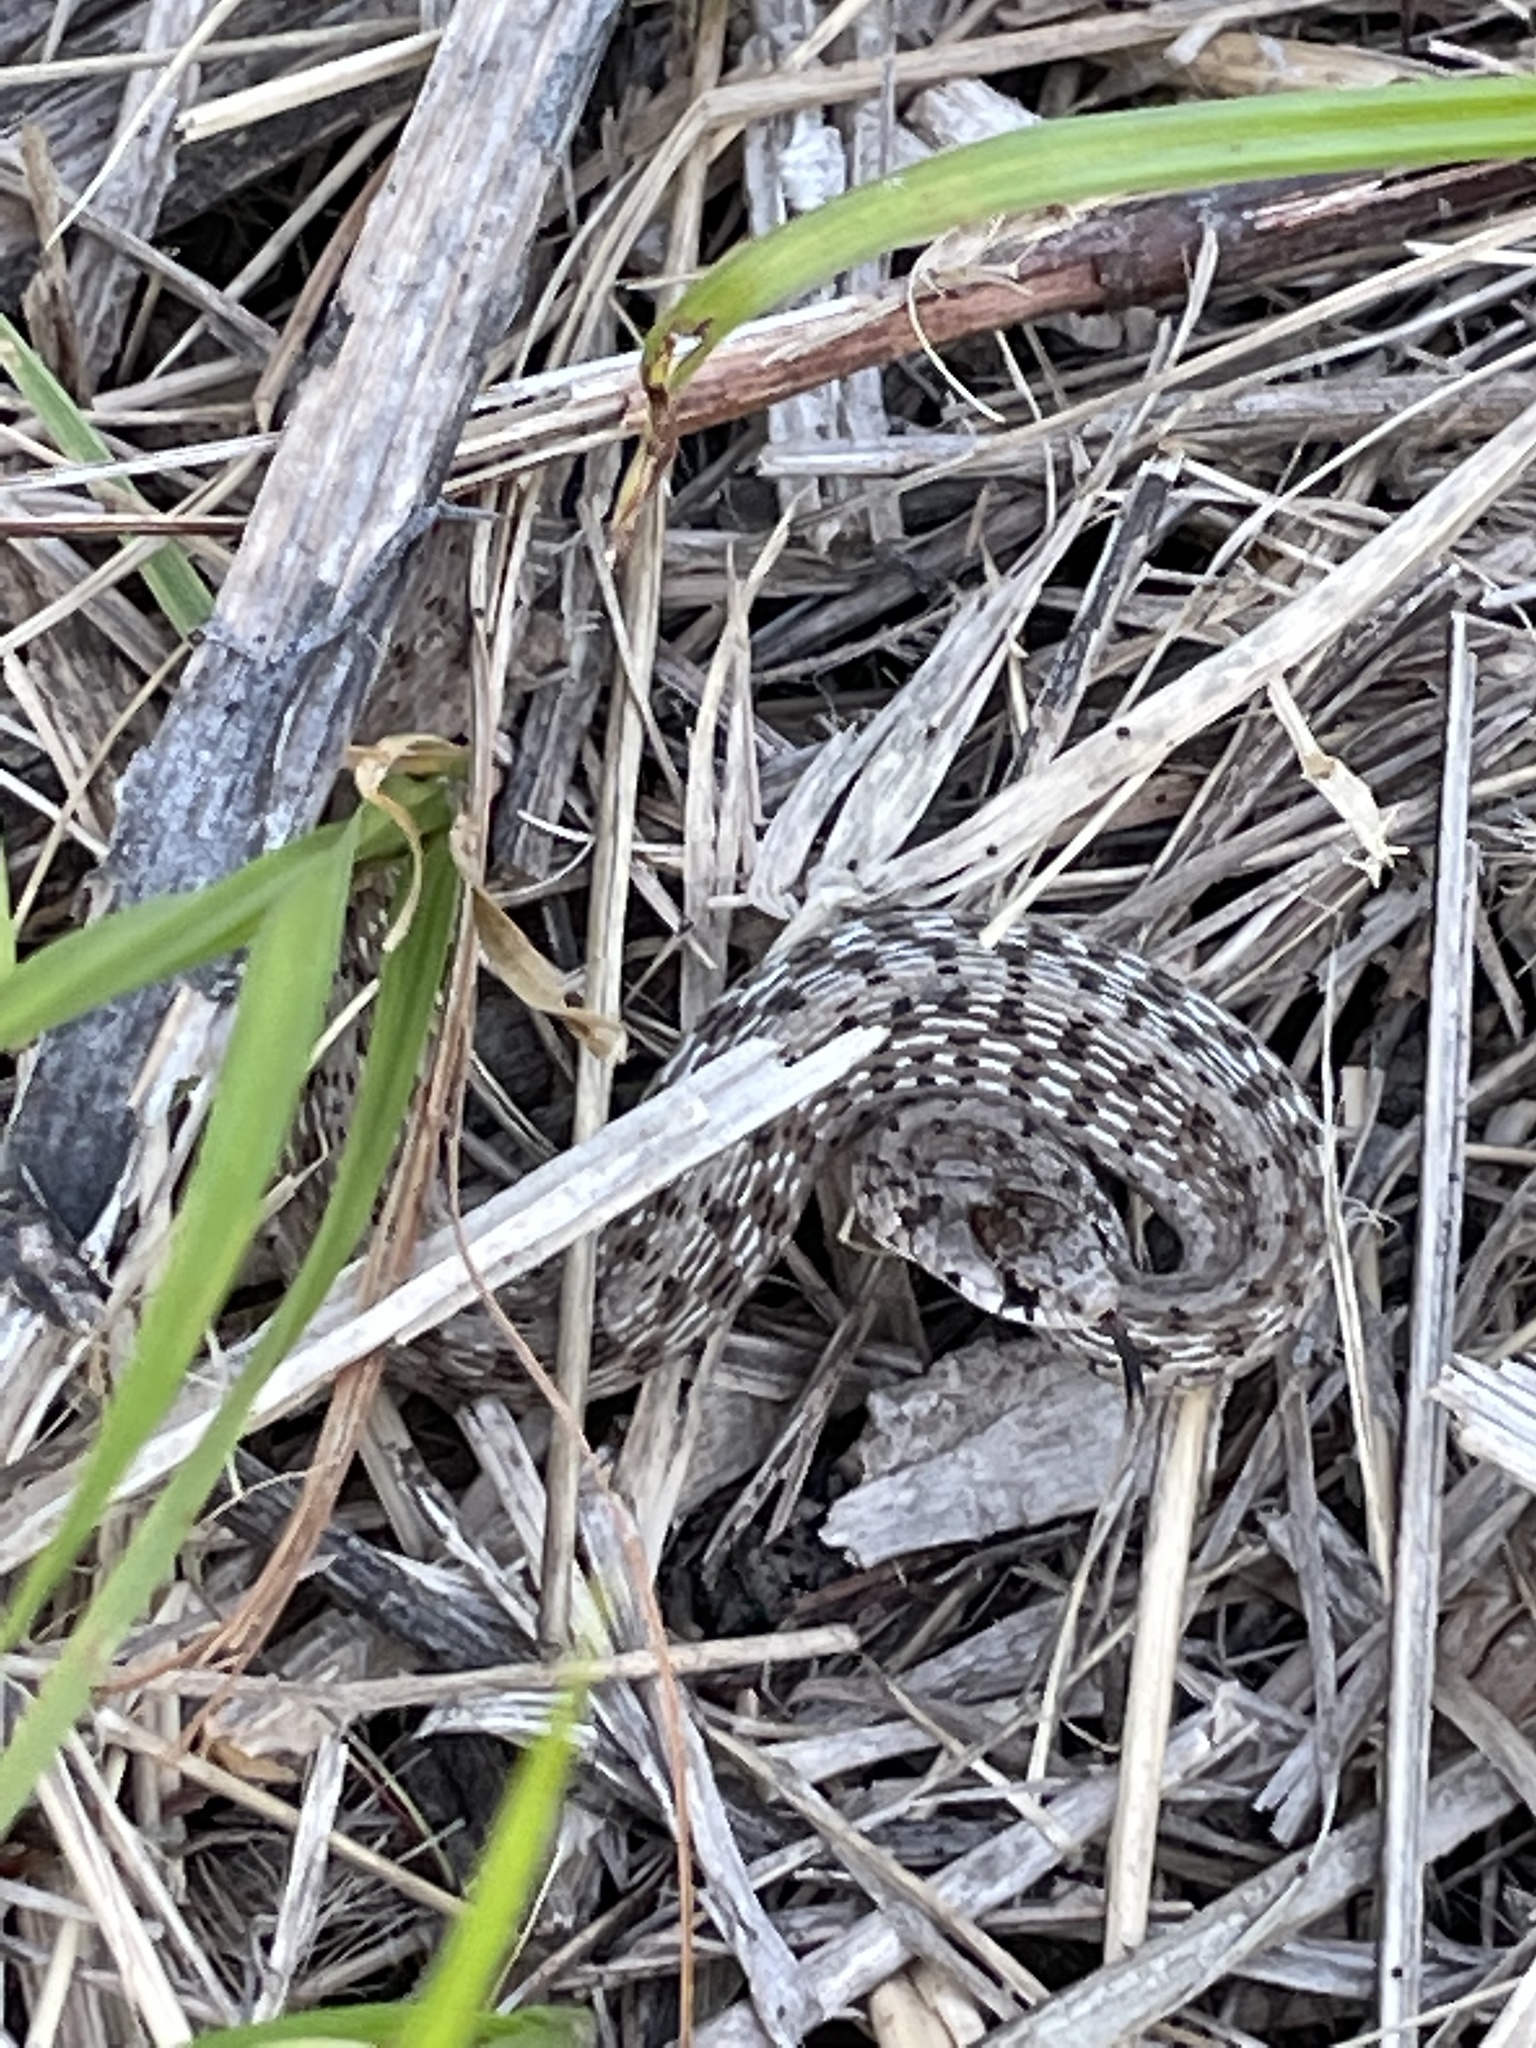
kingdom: Animalia
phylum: Chordata
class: Squamata
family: Colubridae
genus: Storeria
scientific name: Storeria dekayi
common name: (dekay’s) brown snake
